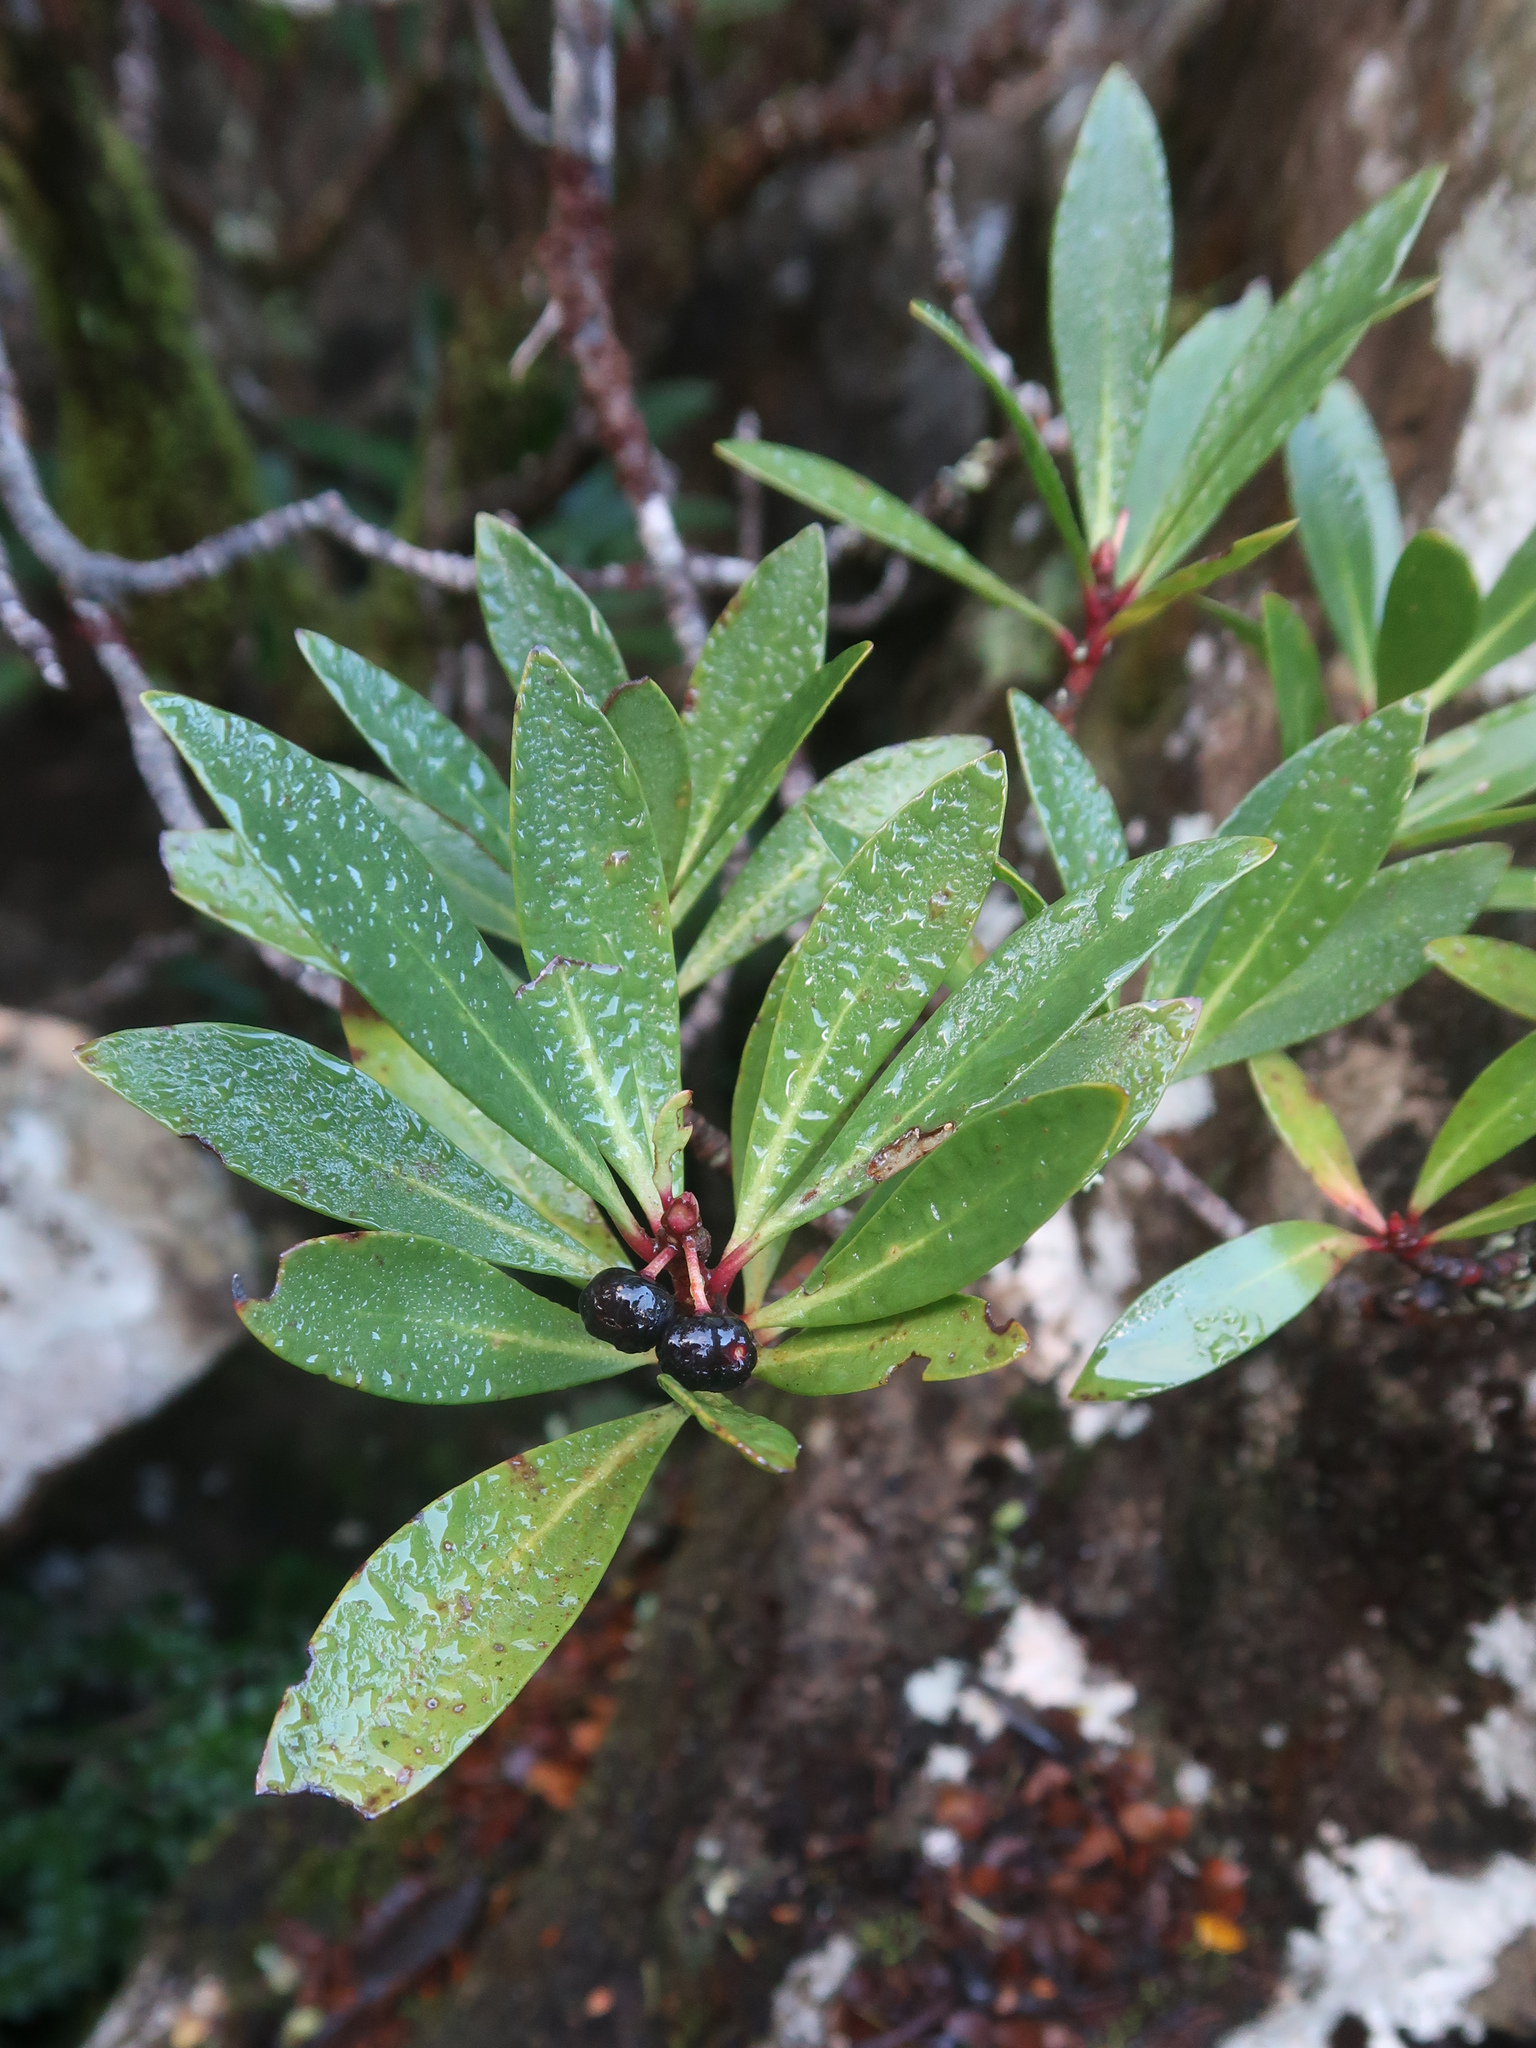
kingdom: Plantae
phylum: Tracheophyta
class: Magnoliopsida
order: Canellales
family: Winteraceae
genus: Drimys
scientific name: Drimys aromatica
